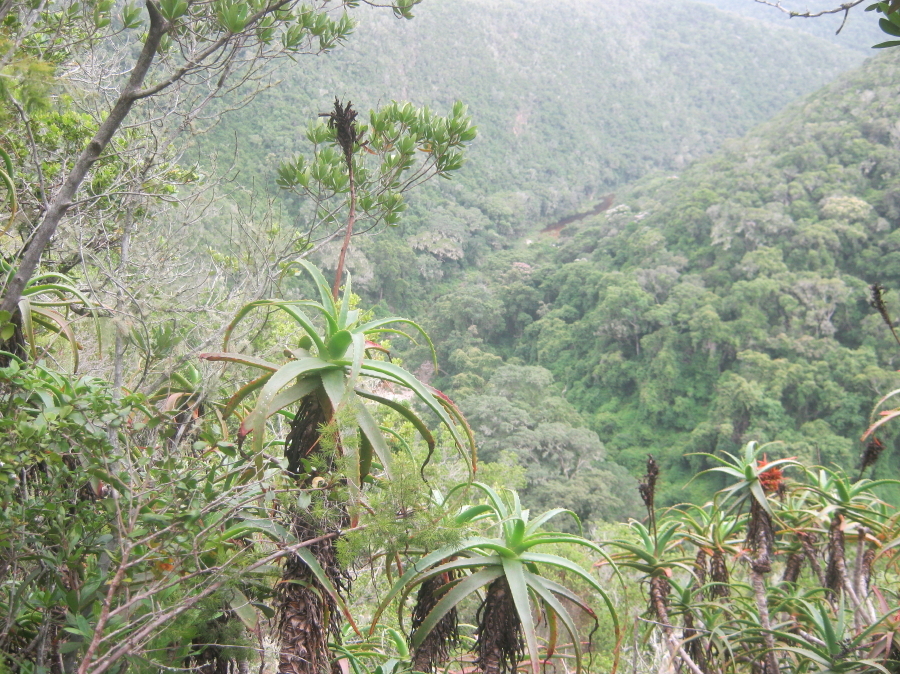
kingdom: Plantae
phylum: Tracheophyta
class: Liliopsida
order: Asparagales
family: Asphodelaceae
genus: Aloe
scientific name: Aloe arborescens
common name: Candelabra aloe
